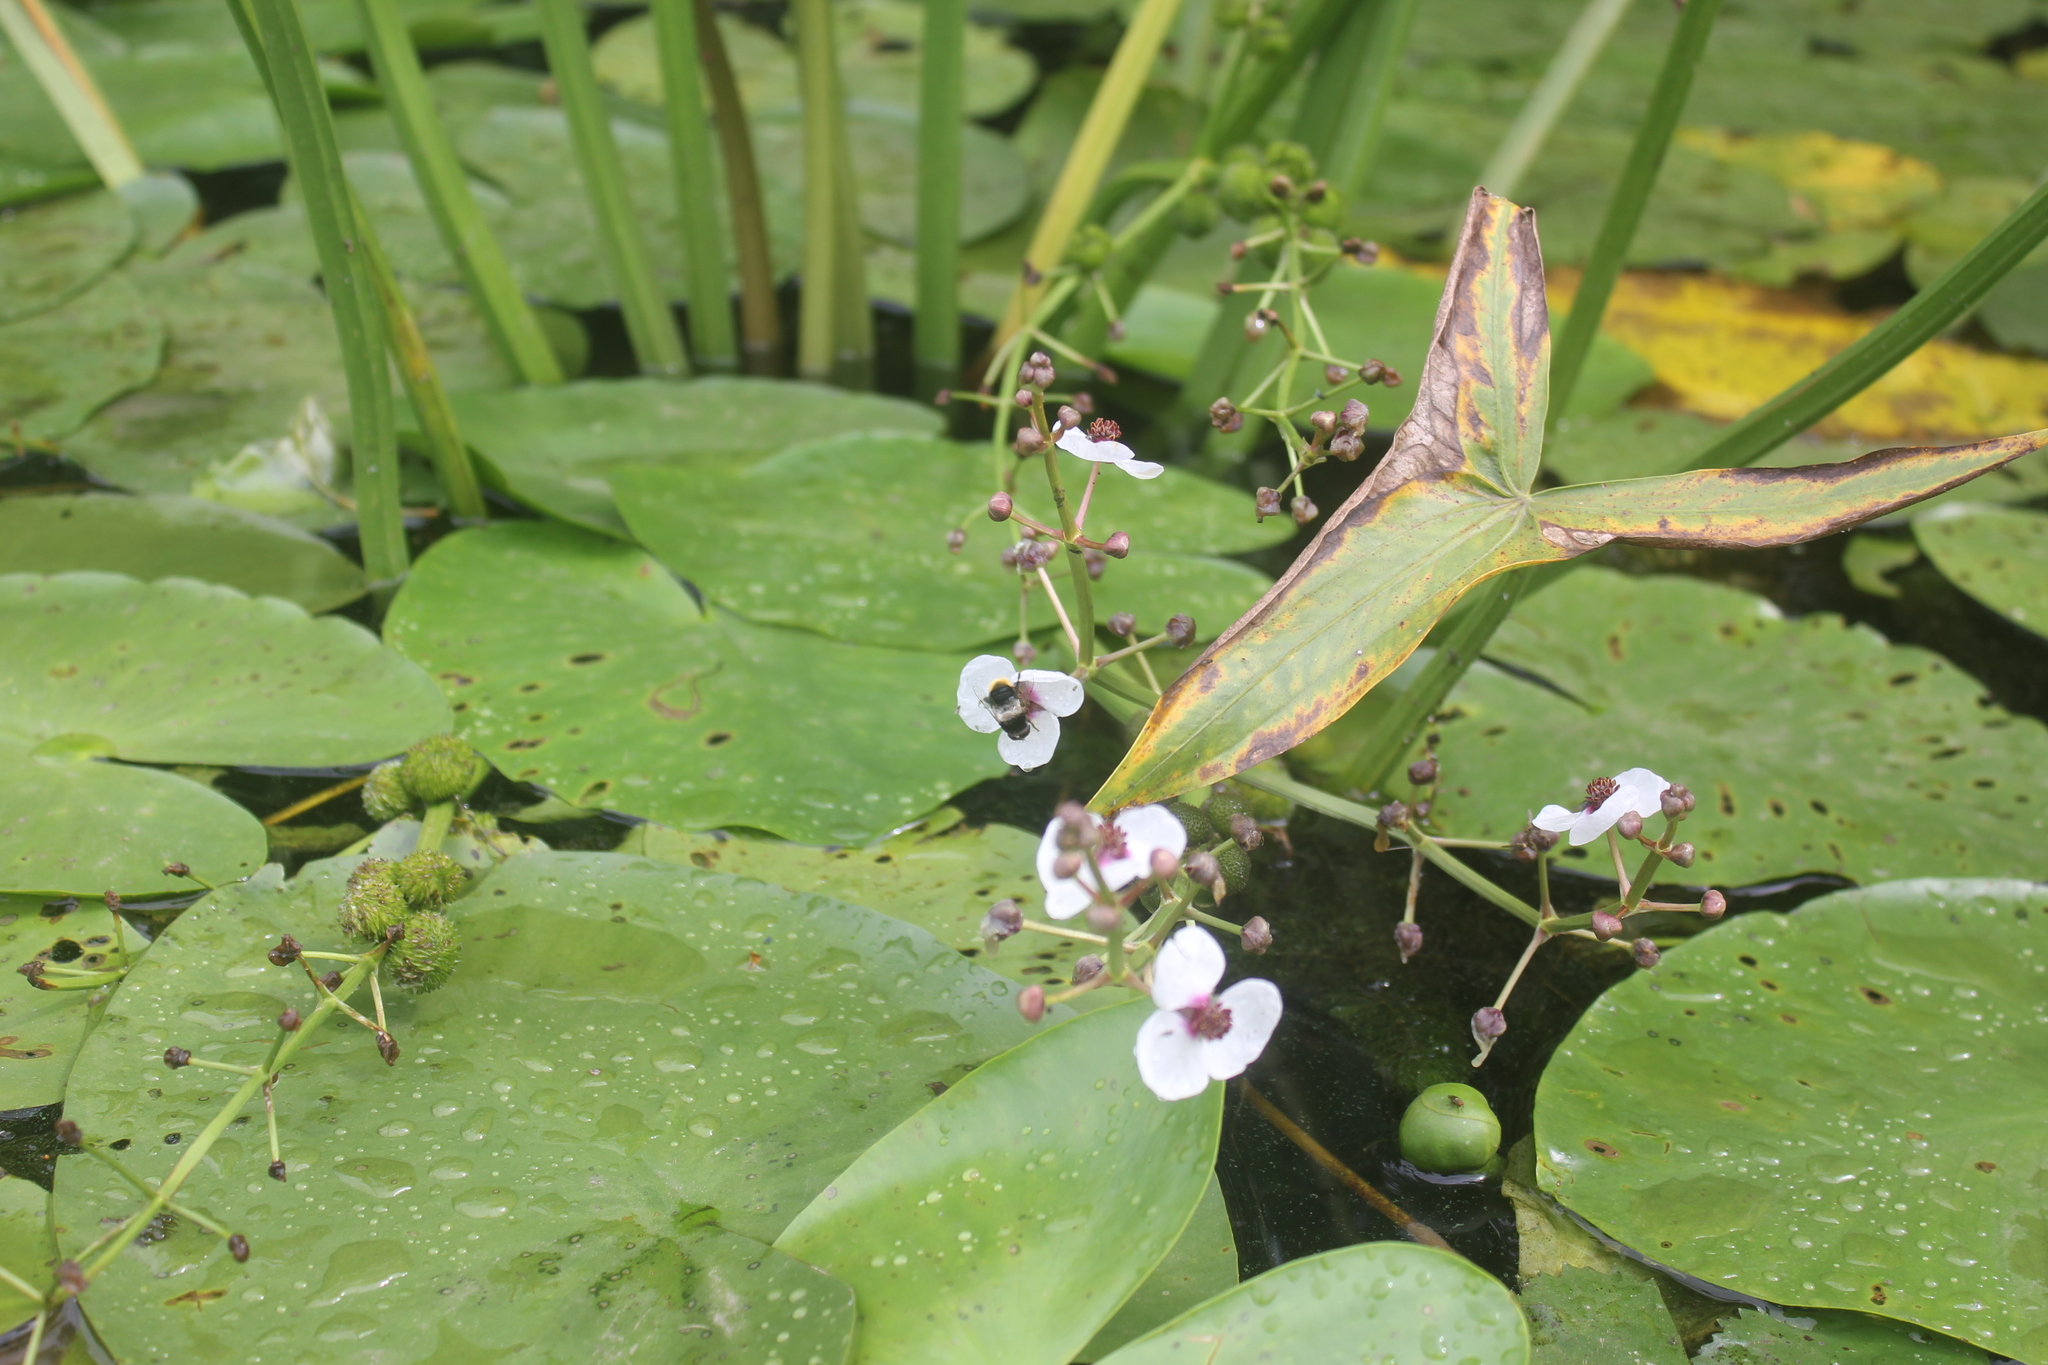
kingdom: Animalia
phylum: Arthropoda
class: Insecta
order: Diptera
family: Syrphidae
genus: Eristalis
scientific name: Eristalis oestracea
